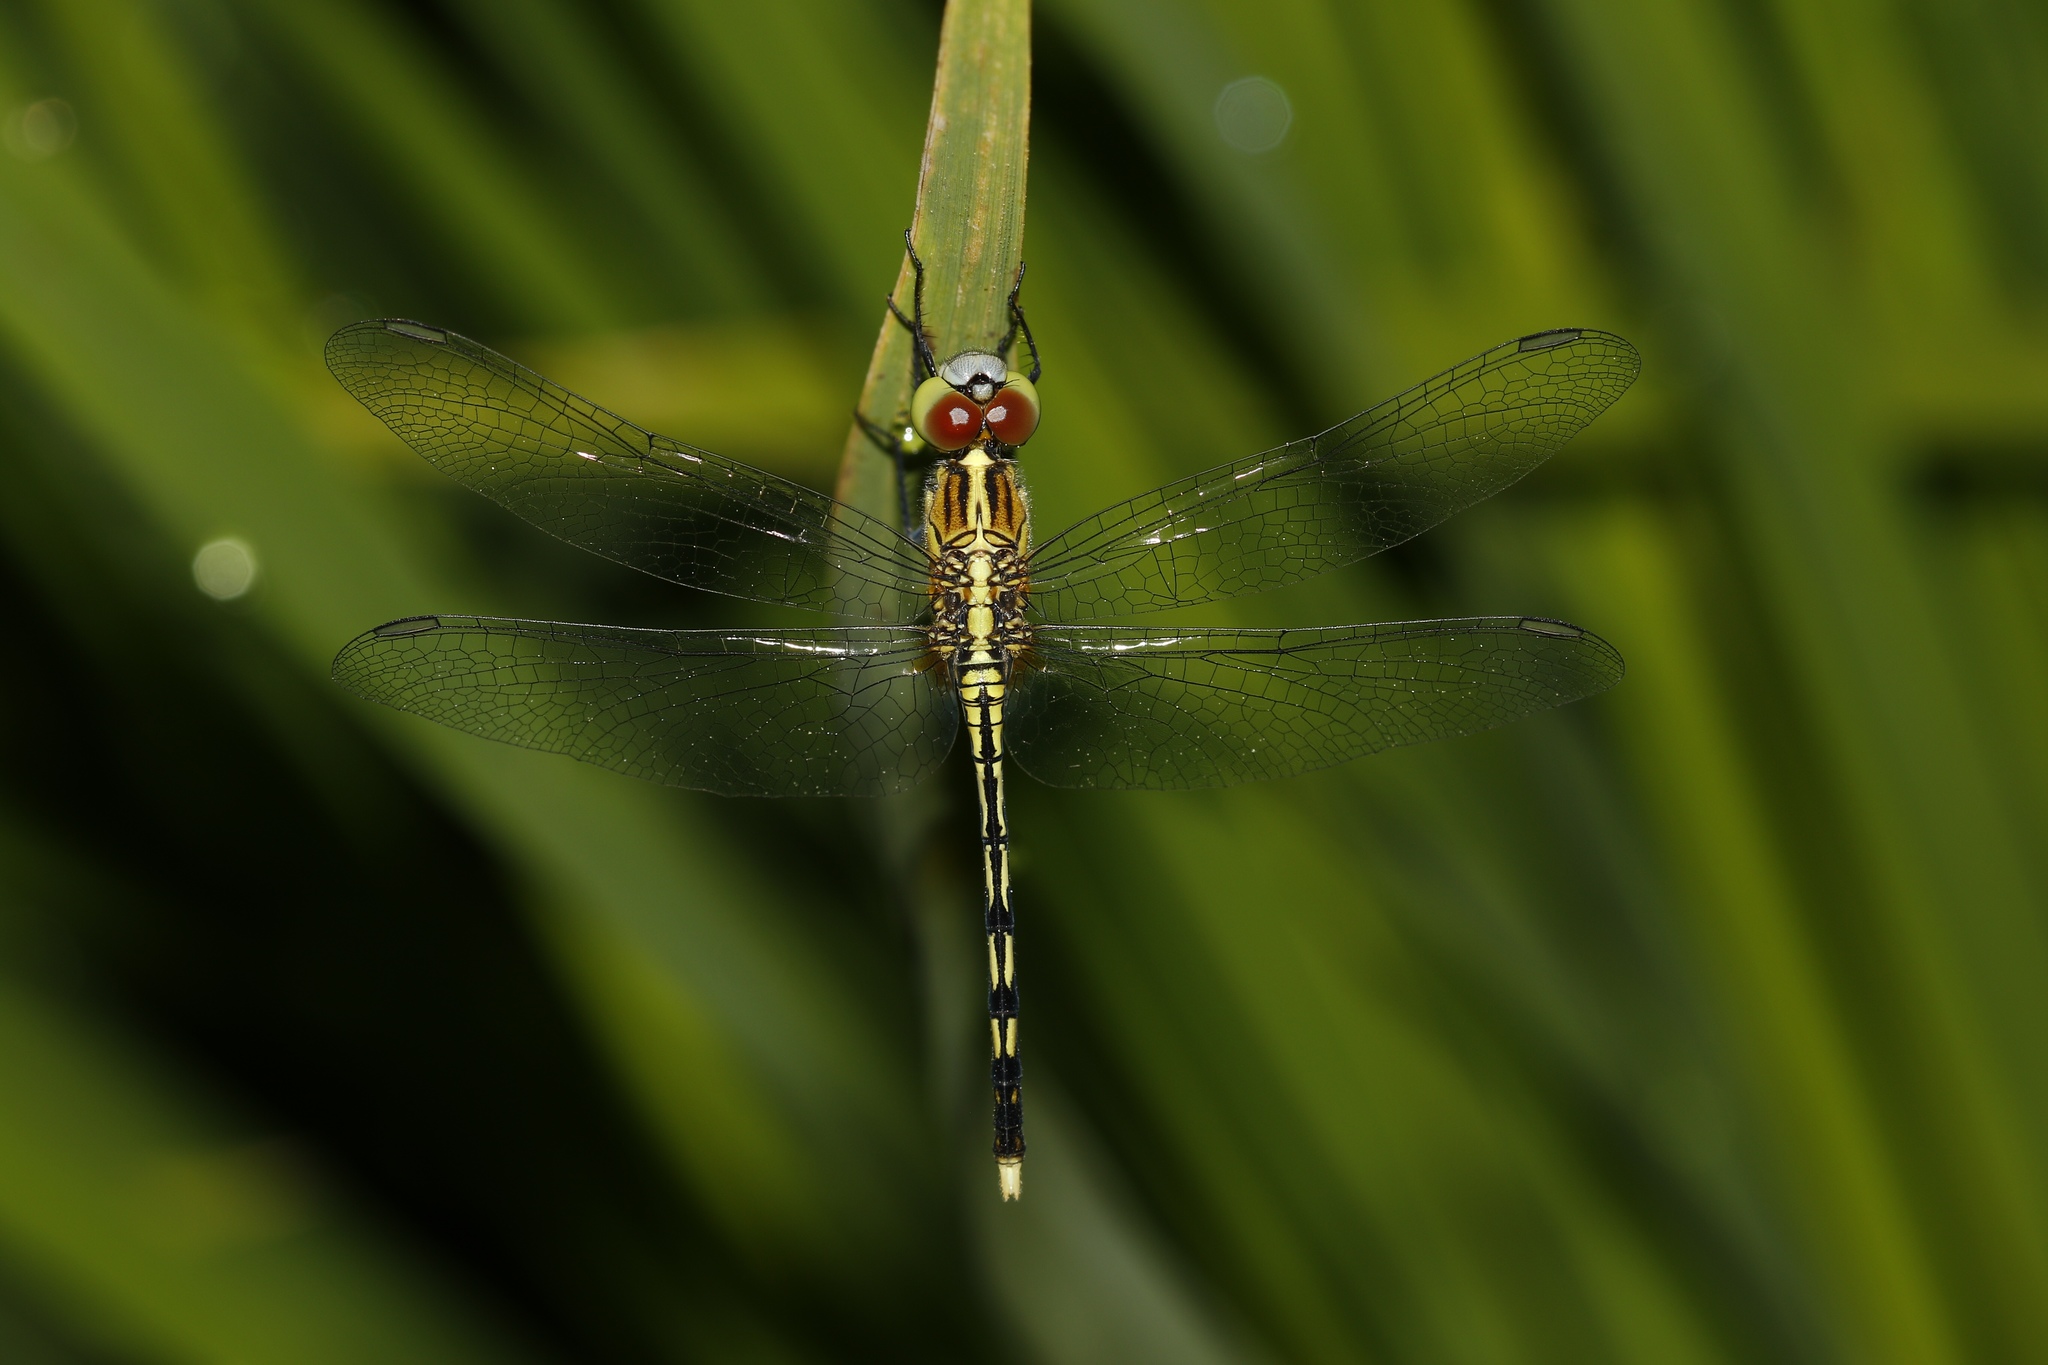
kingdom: Animalia
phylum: Arthropoda
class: Insecta
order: Odonata
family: Libellulidae
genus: Diplacodes
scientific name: Diplacodes trivialis
